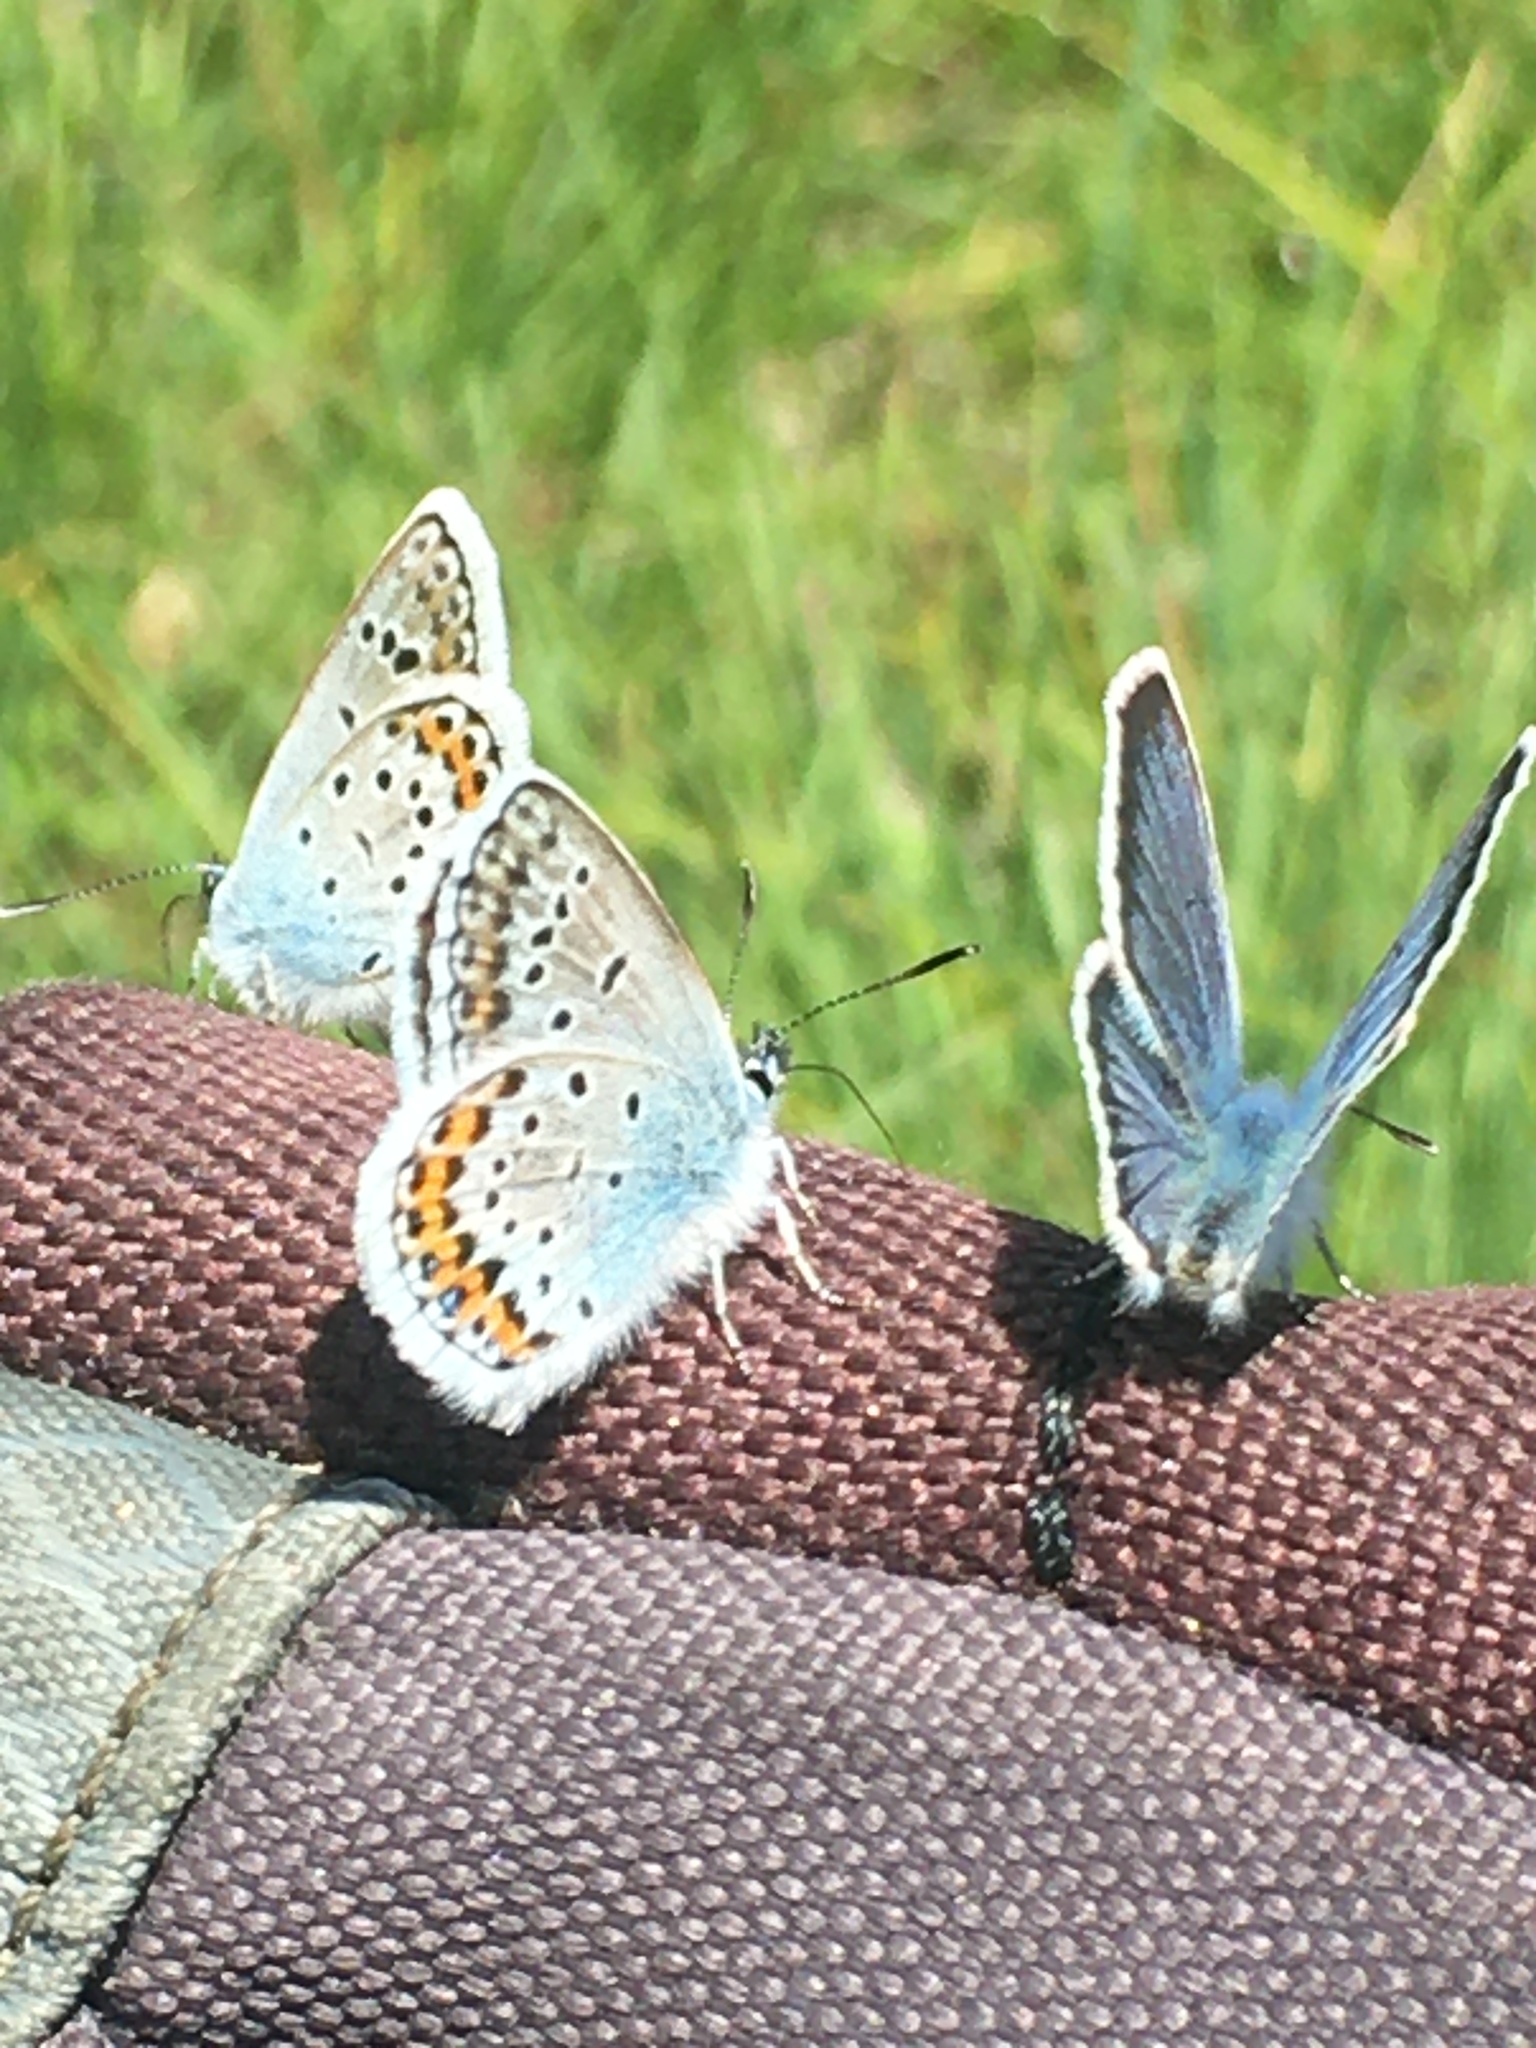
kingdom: Animalia
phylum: Arthropoda
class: Insecta
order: Lepidoptera
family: Lycaenidae
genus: Plebejus
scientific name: Plebejus argus
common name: Silver-studded blue
